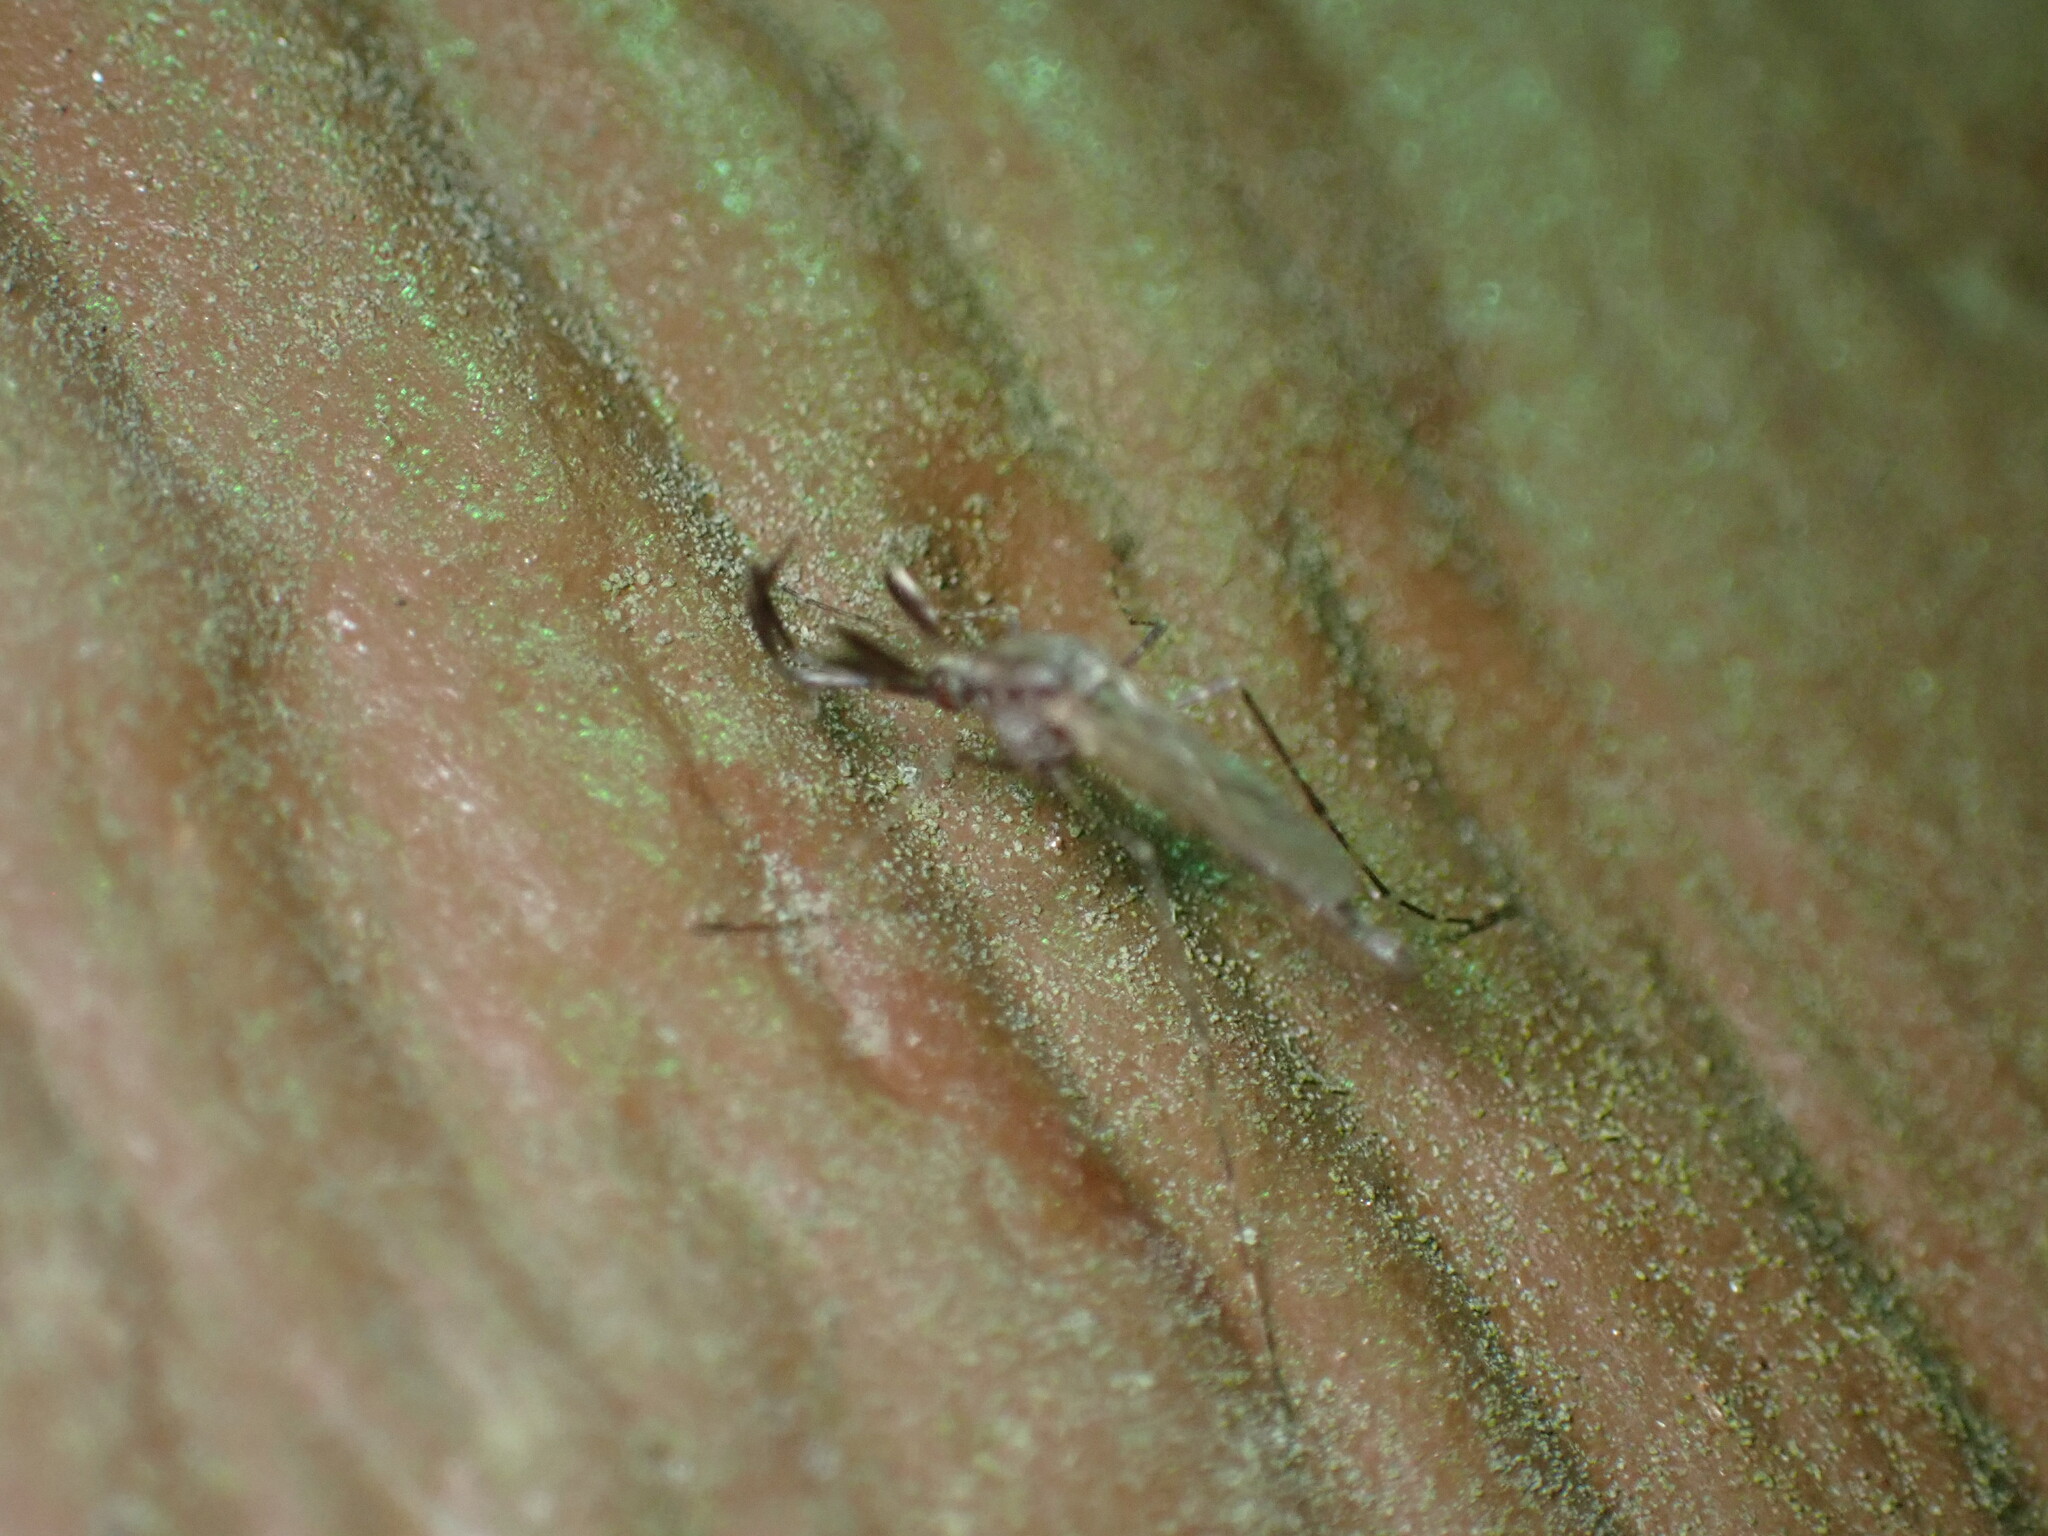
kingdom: Animalia
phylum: Arthropoda
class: Insecta
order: Diptera
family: Culicidae
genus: Psorophora
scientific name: Psorophora columbiae
